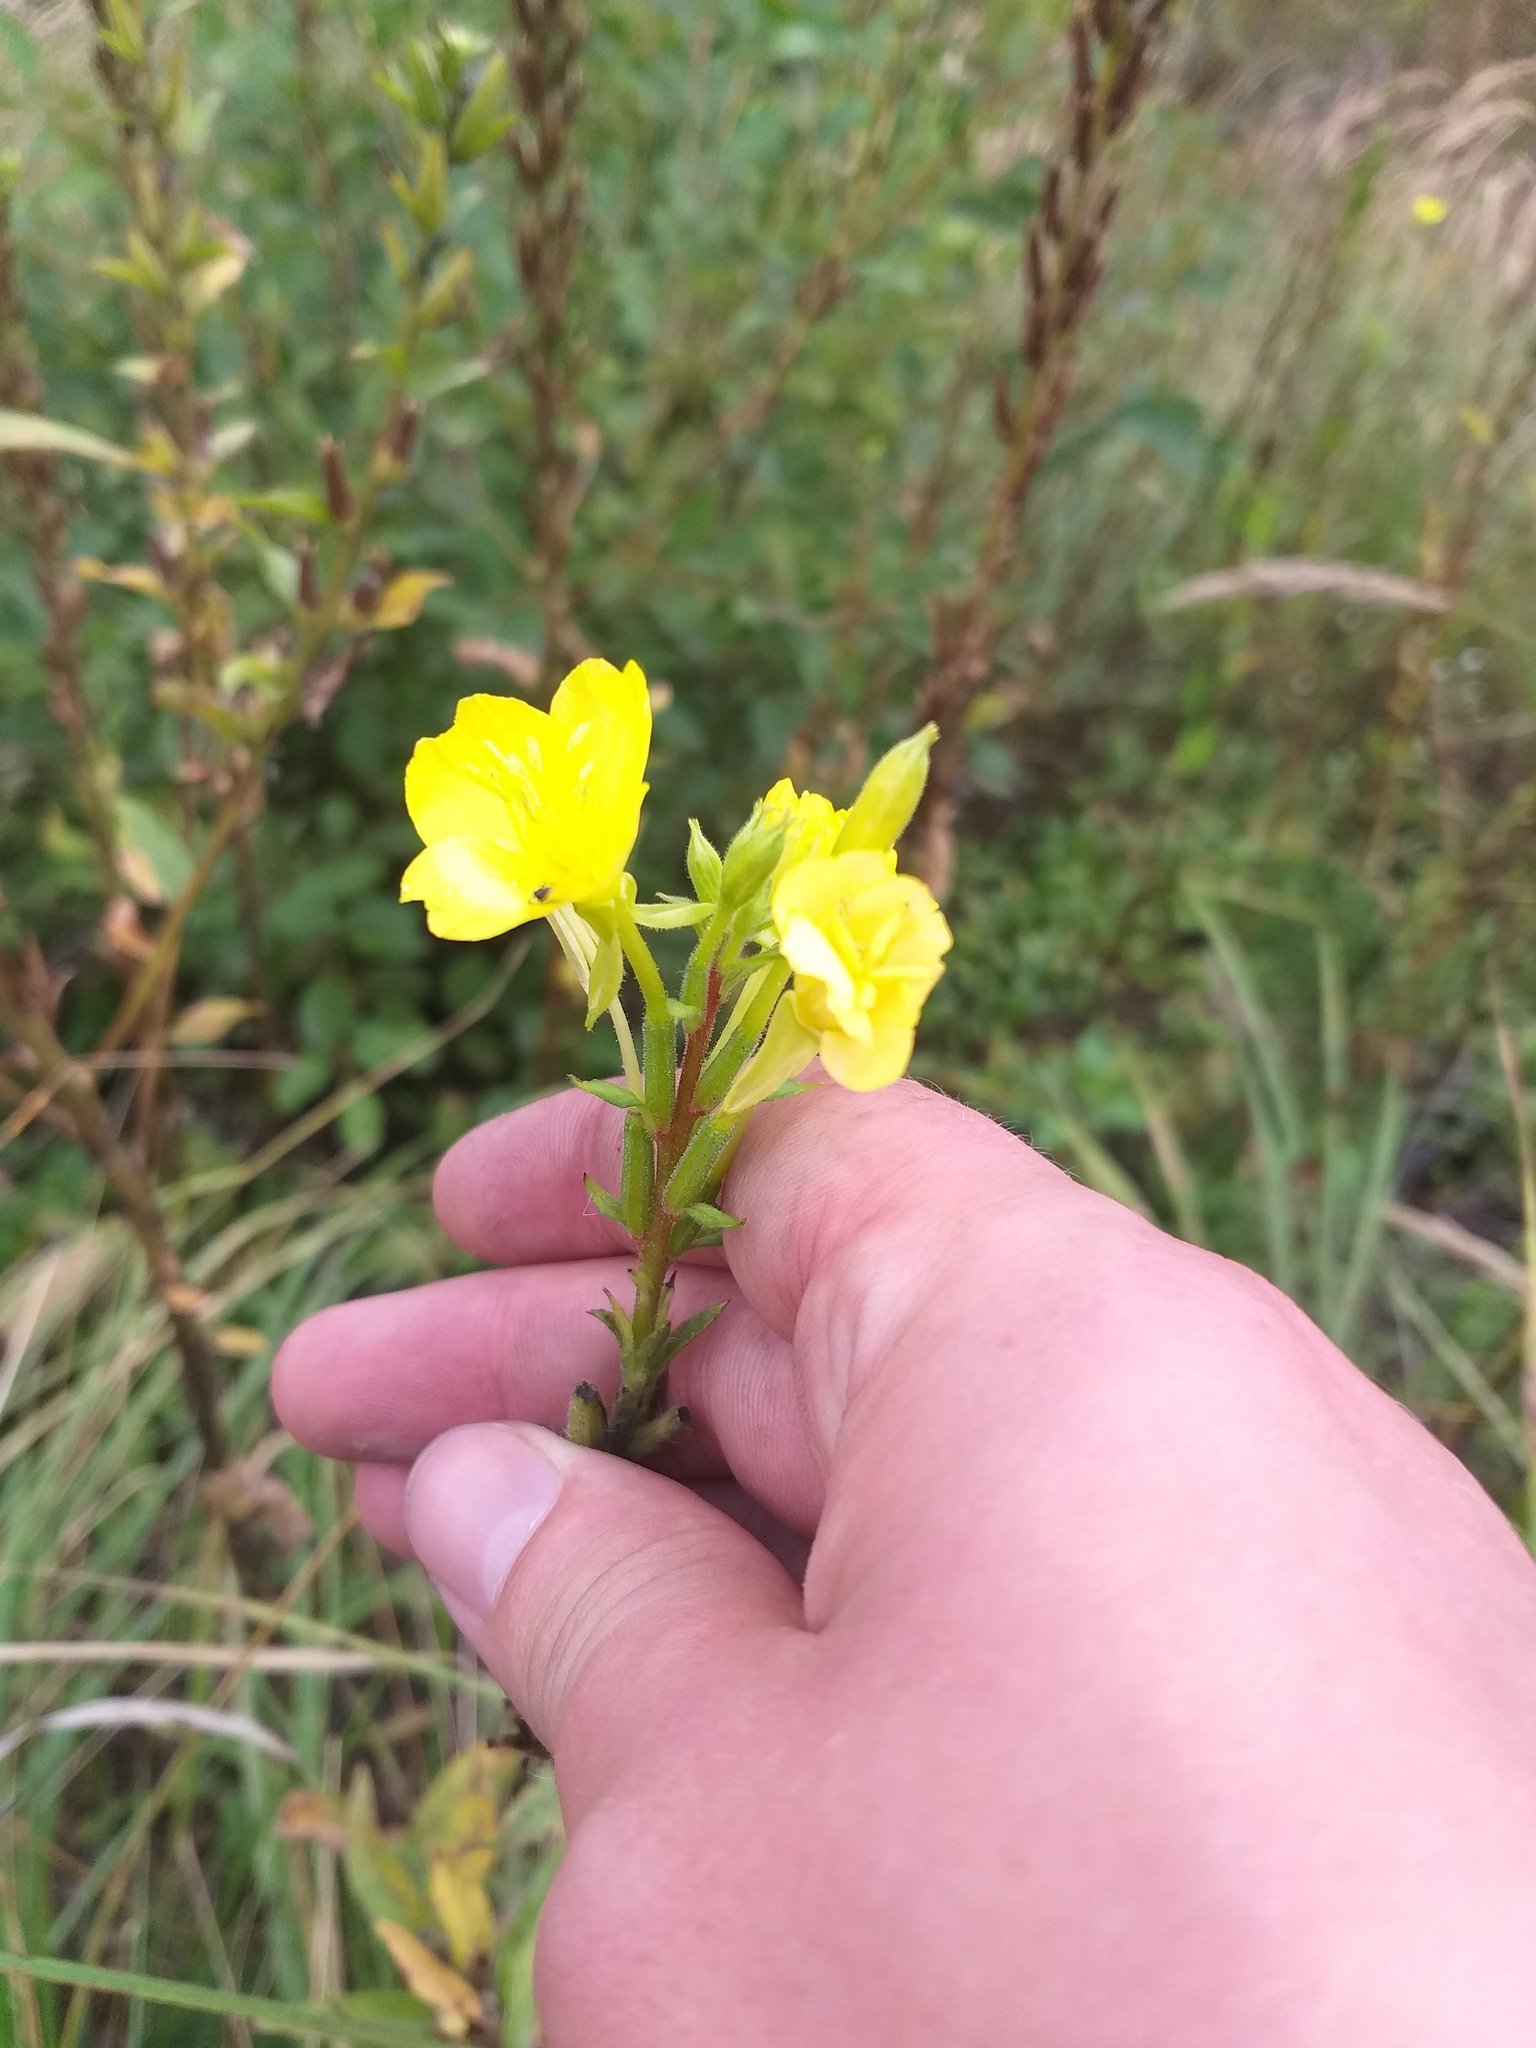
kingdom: Plantae
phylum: Tracheophyta
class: Magnoliopsida
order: Myrtales
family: Onagraceae
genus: Oenothera
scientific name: Oenothera rubricaulis
